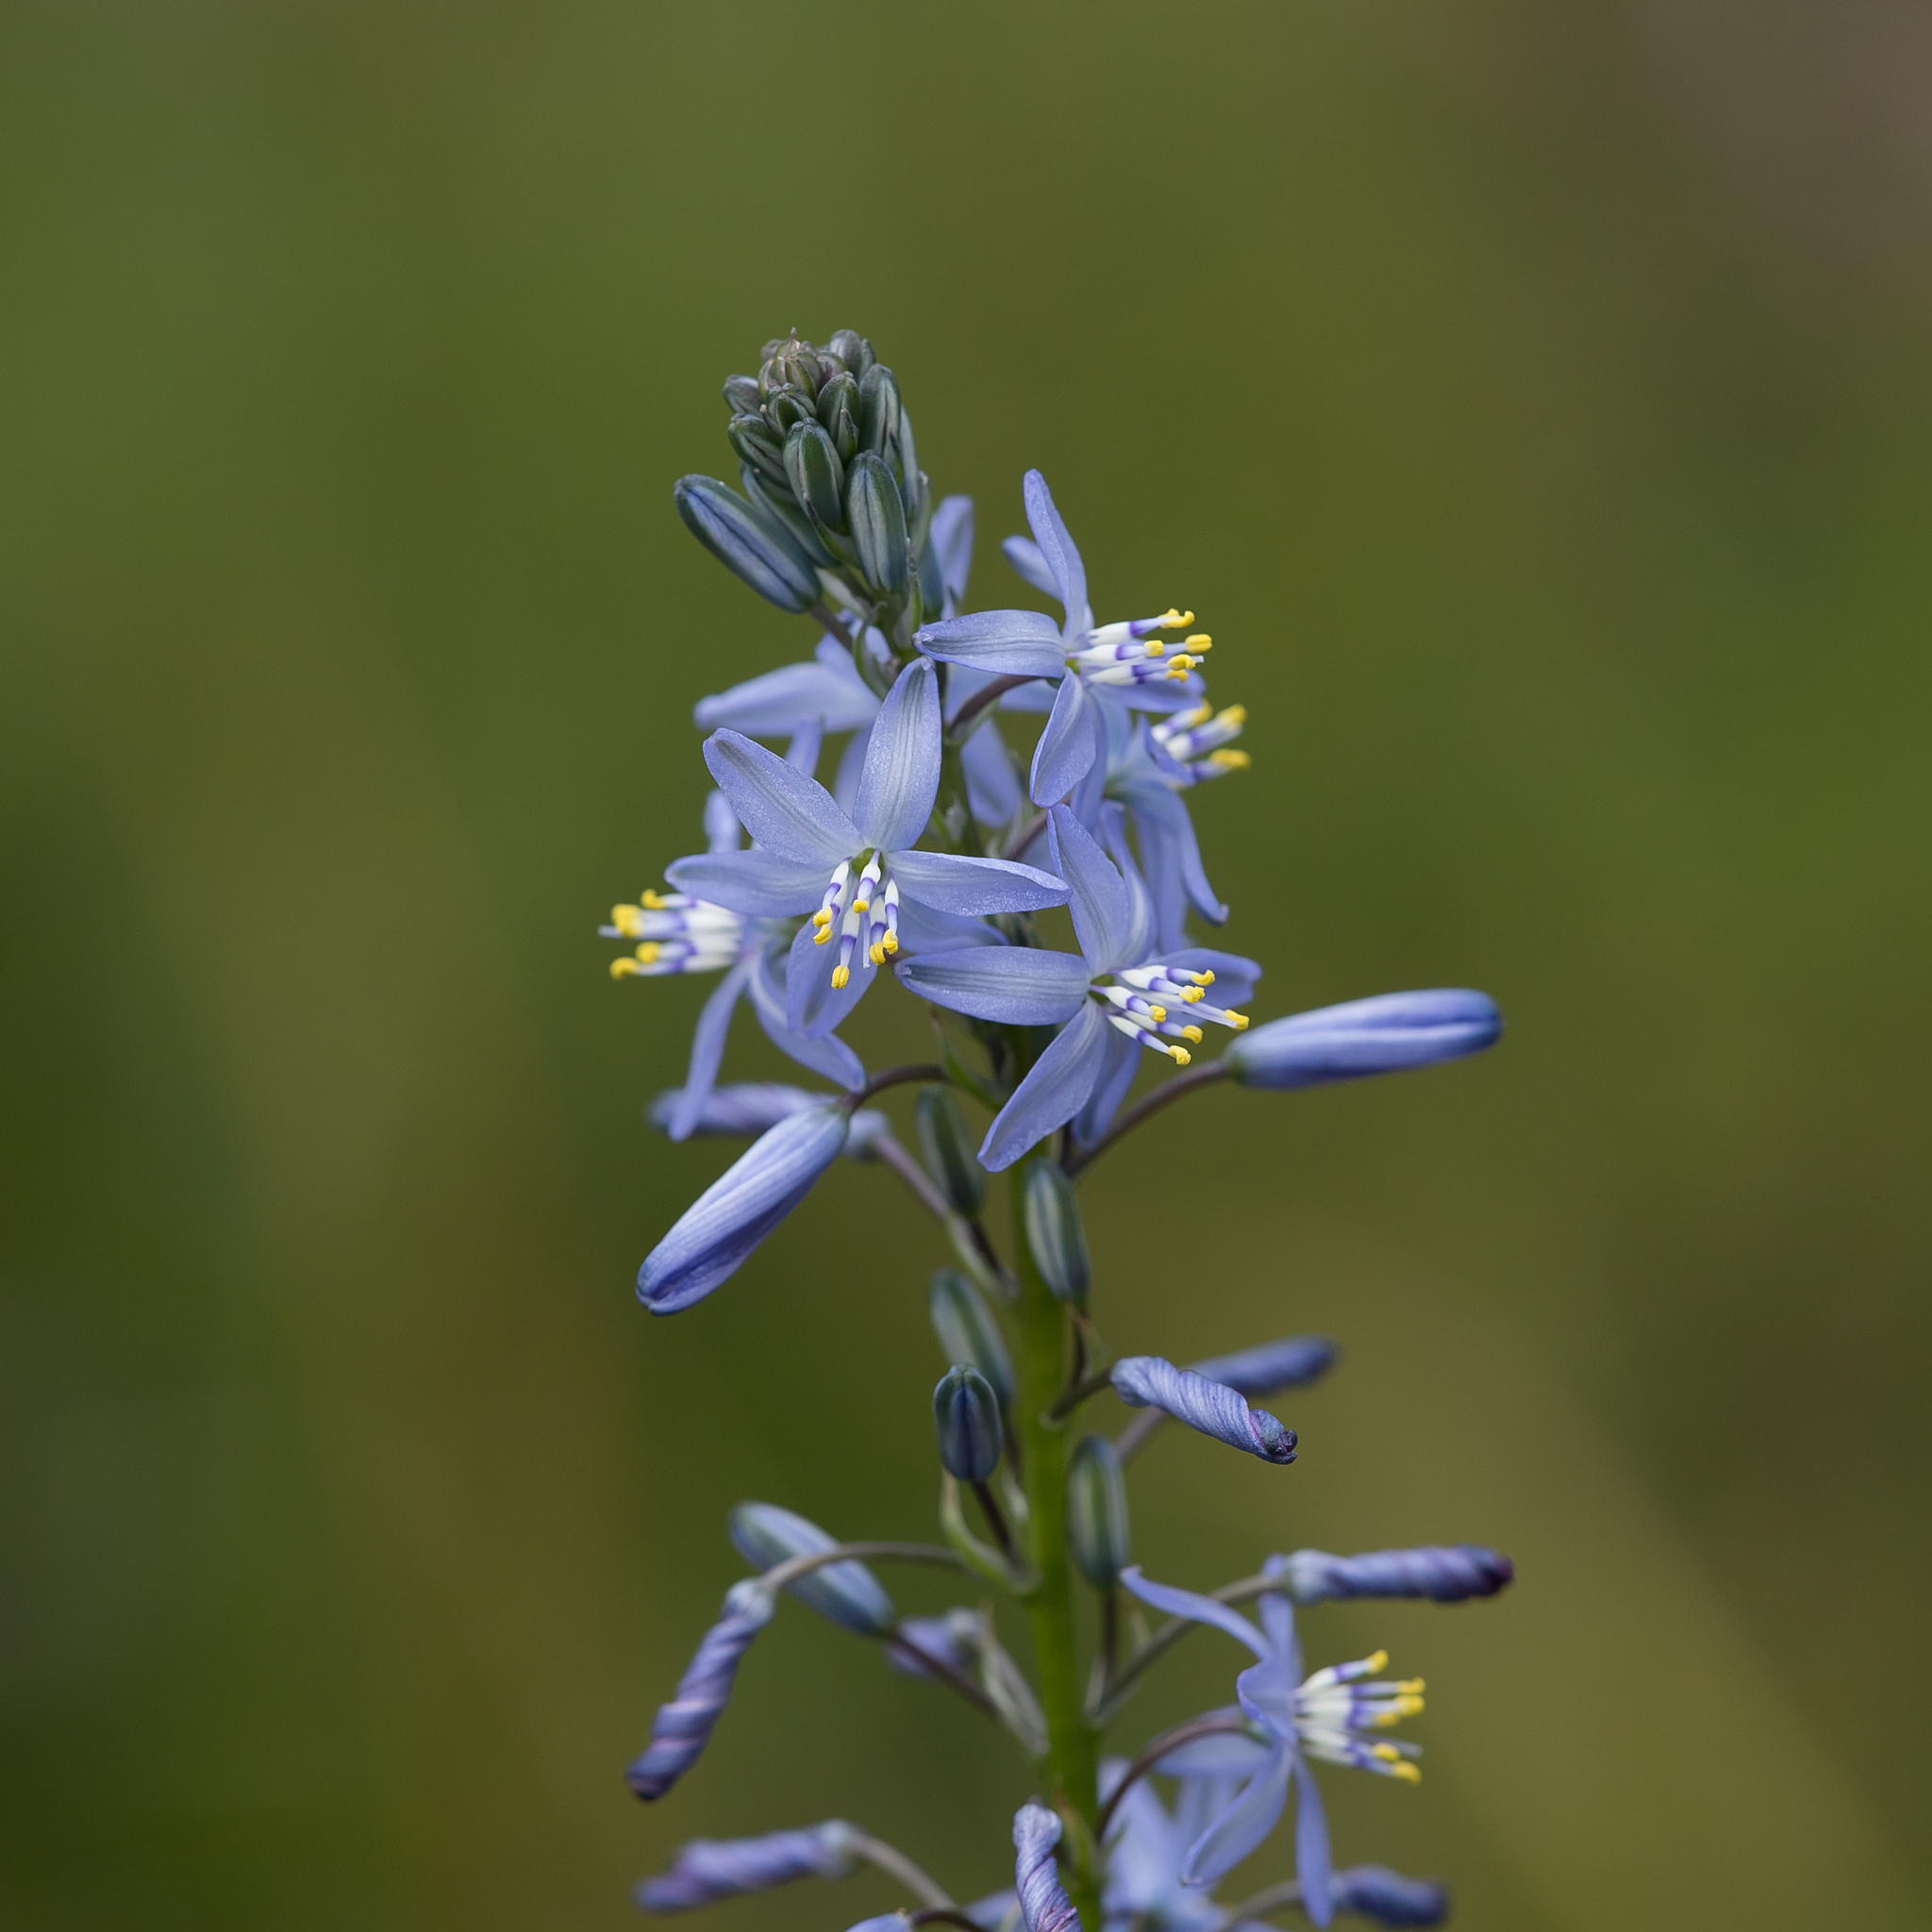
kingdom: Plantae
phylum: Tracheophyta
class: Liliopsida
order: Asparagales
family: Asphodelaceae
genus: Caesia
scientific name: Caesia calliantha
